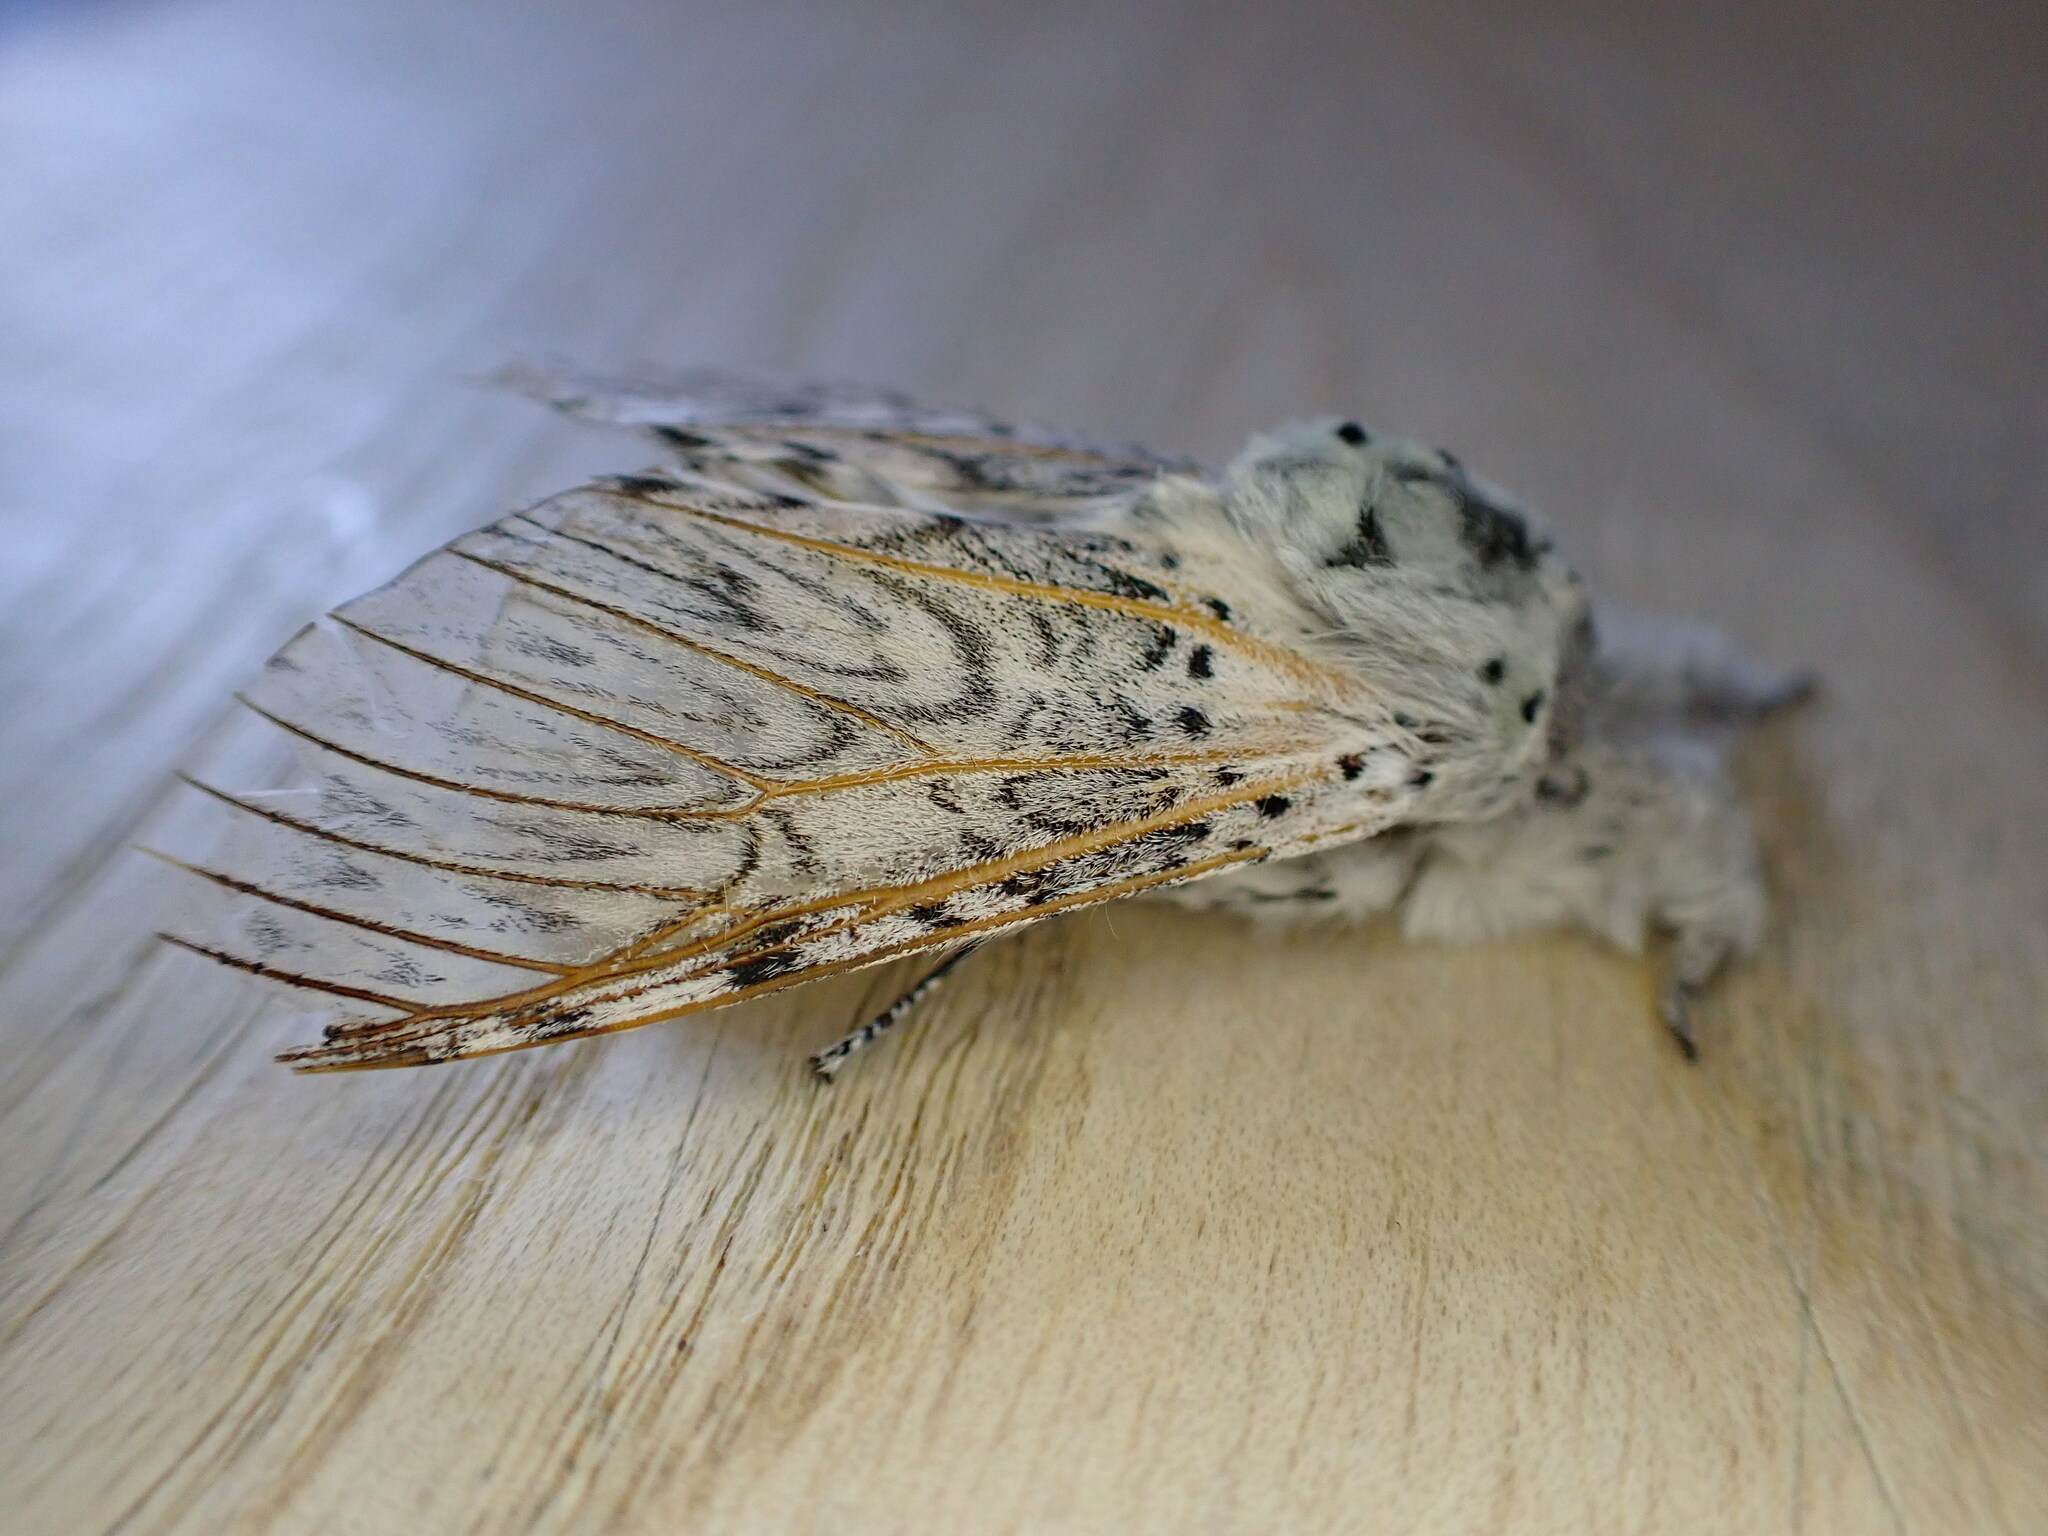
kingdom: Animalia
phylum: Arthropoda
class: Insecta
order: Lepidoptera
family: Notodontidae
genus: Cerura
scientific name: Cerura vinula
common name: Puss moth
